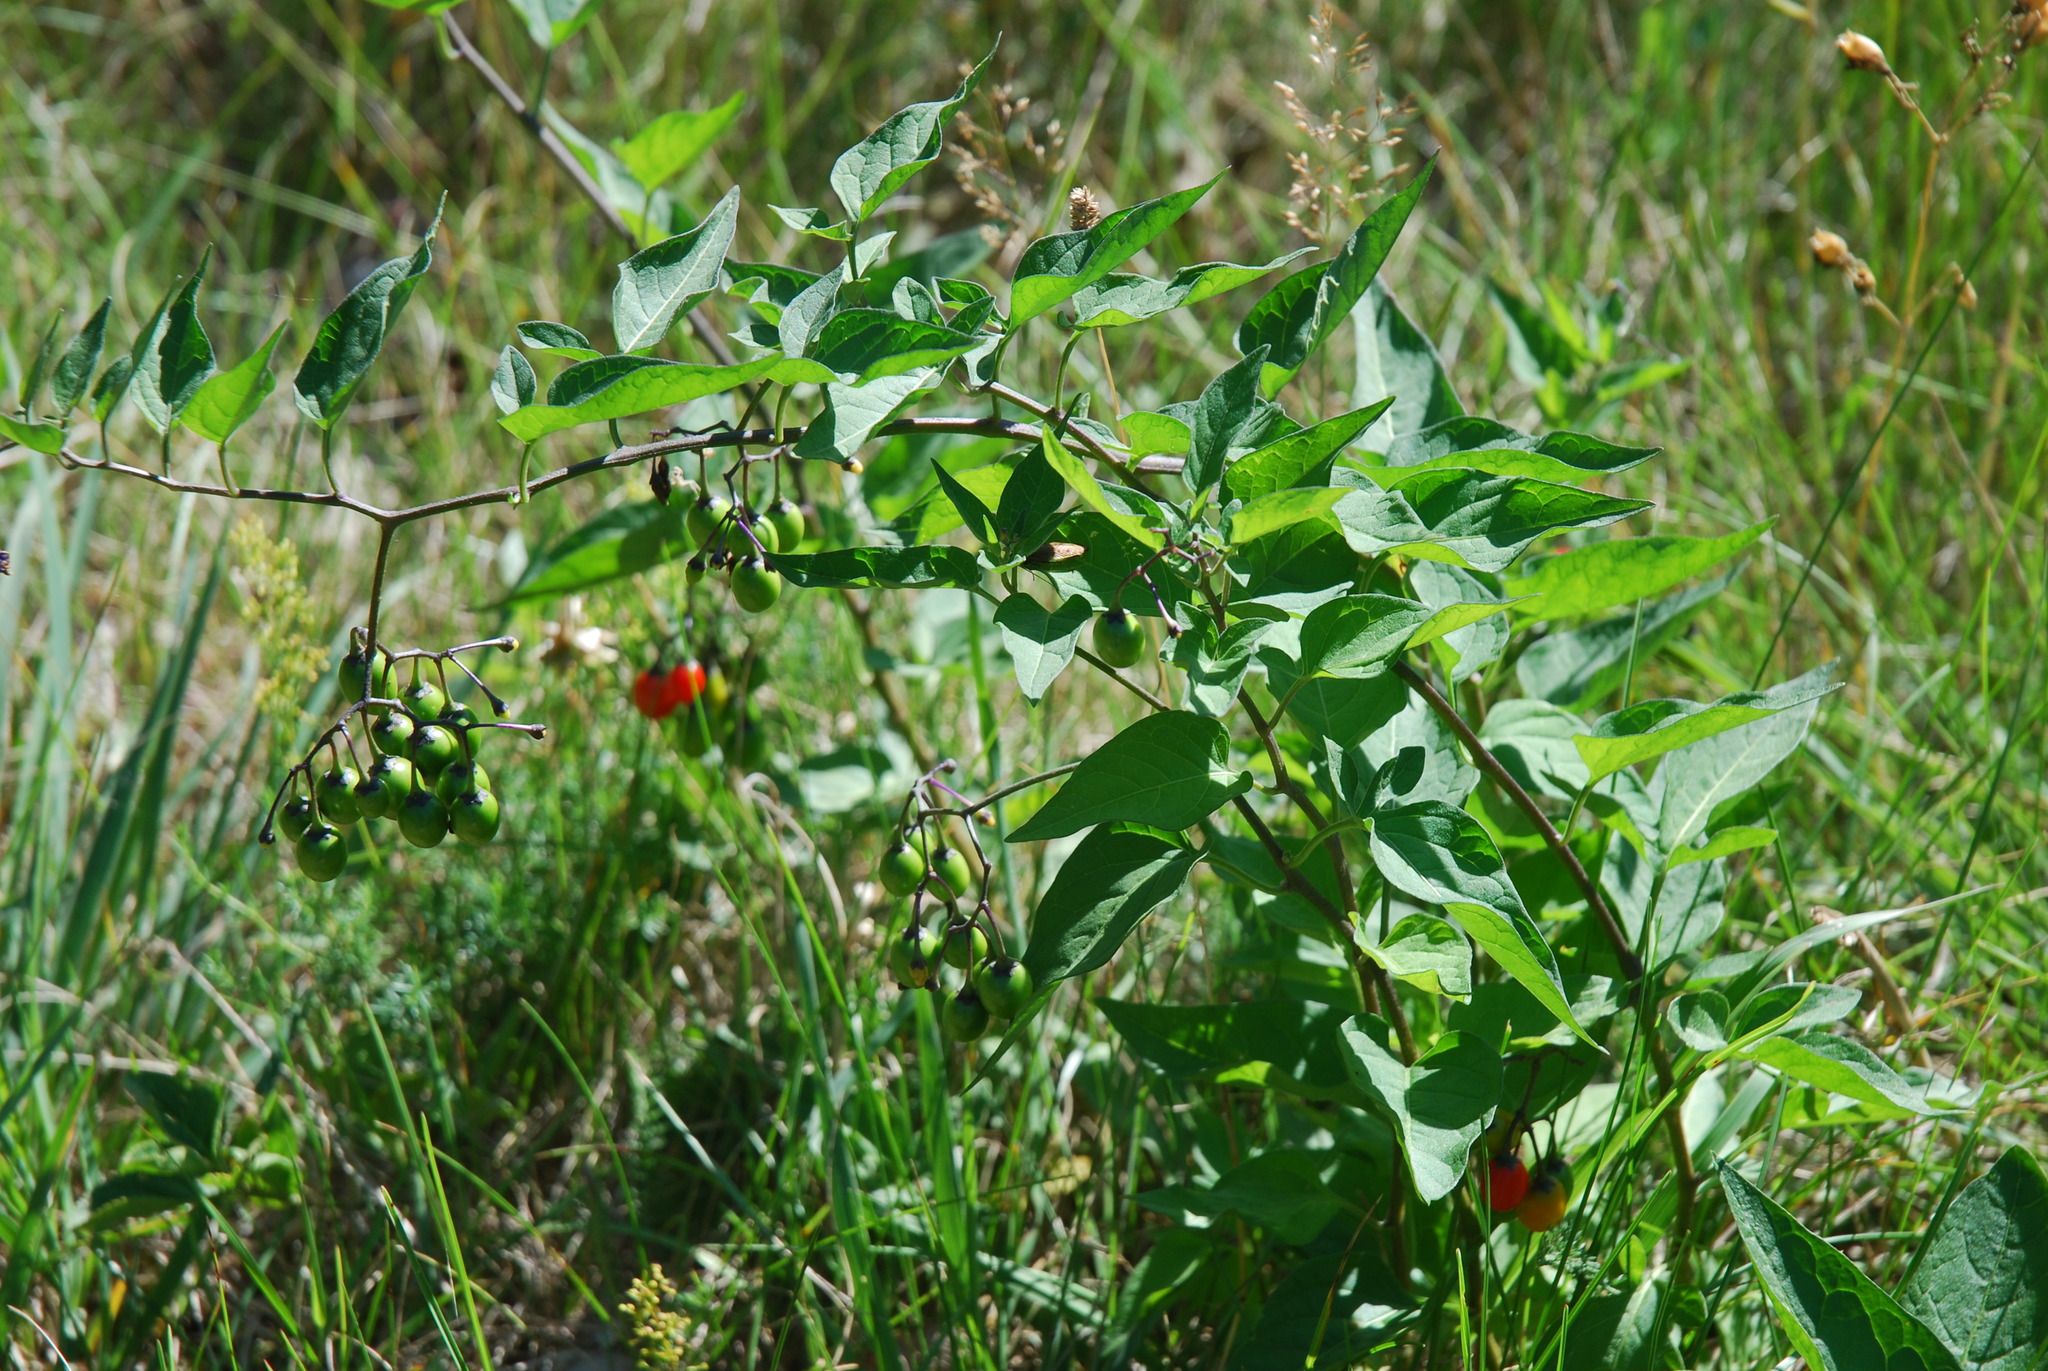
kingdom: Plantae
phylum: Tracheophyta
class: Magnoliopsida
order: Solanales
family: Solanaceae
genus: Solanum
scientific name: Solanum dulcamara
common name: Climbing nightshade
